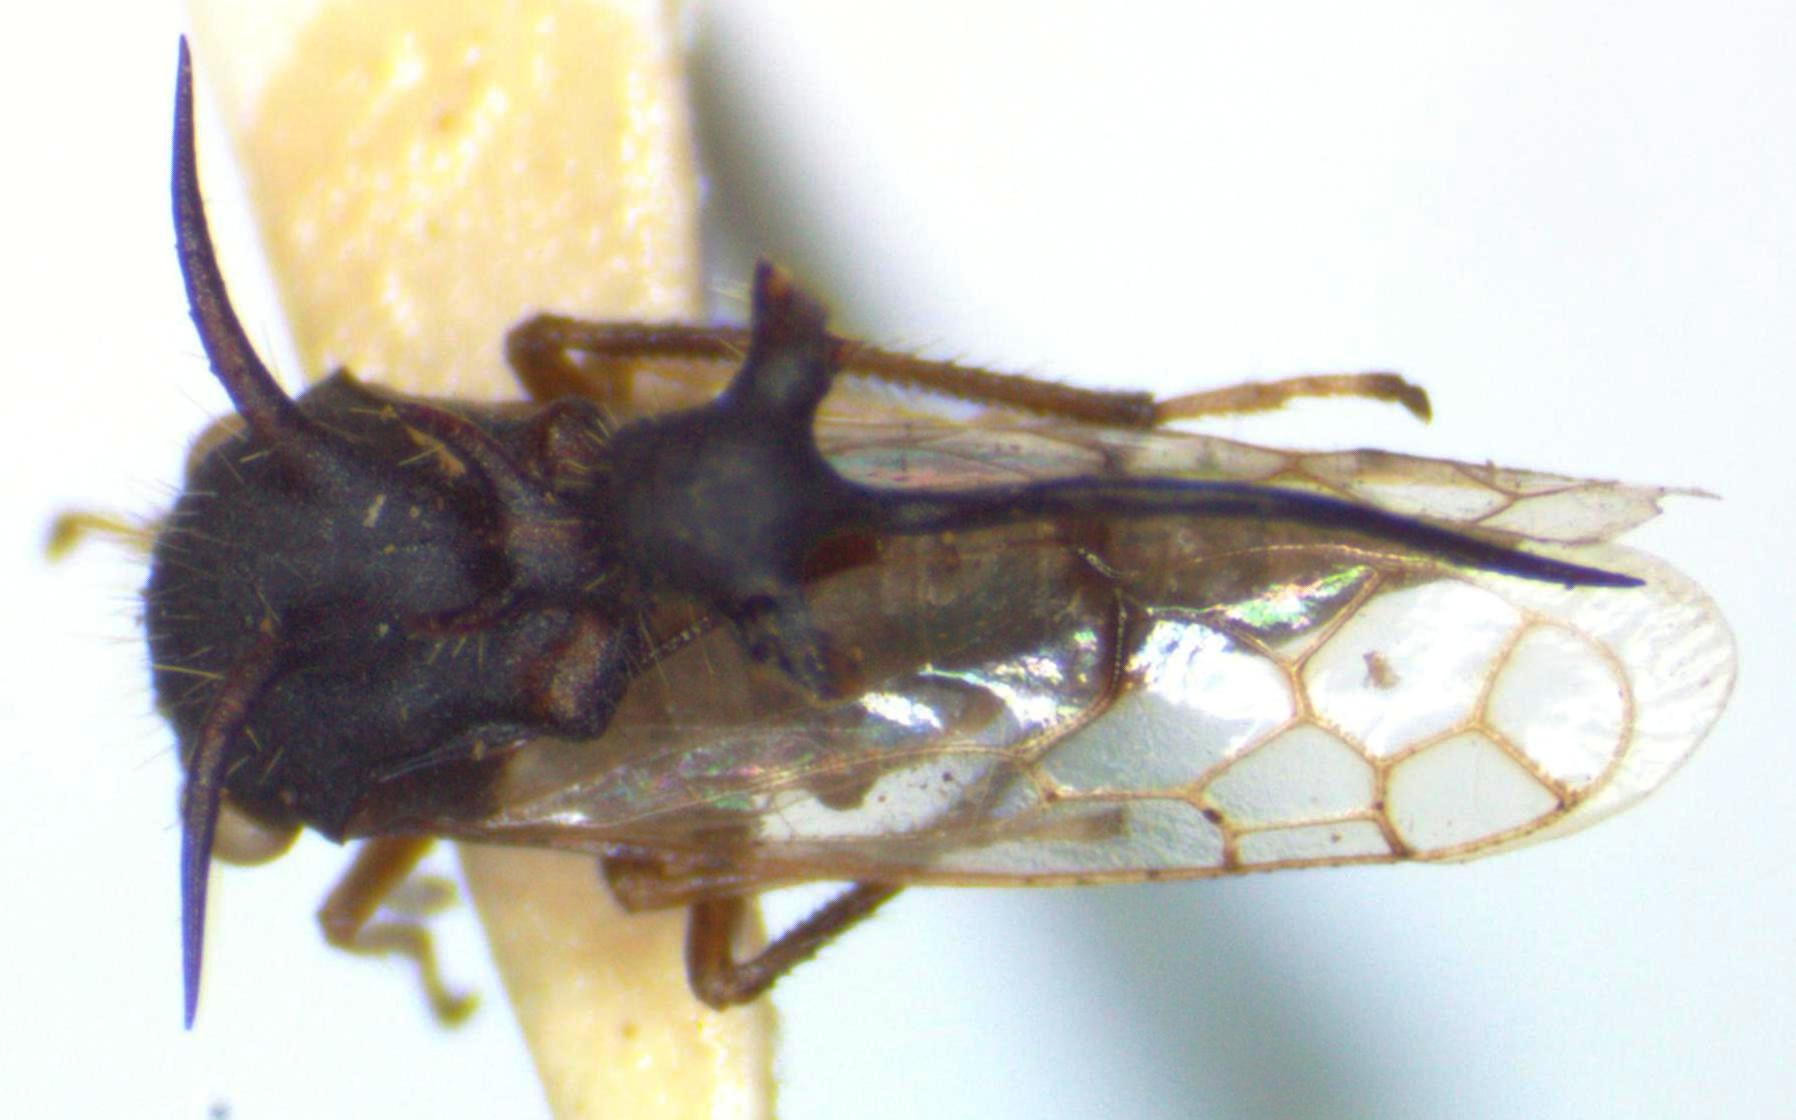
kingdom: Animalia
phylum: Arthropoda
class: Insecta
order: Hemiptera
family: Membracidae
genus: Cyphonia
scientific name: Cyphonia clavata
